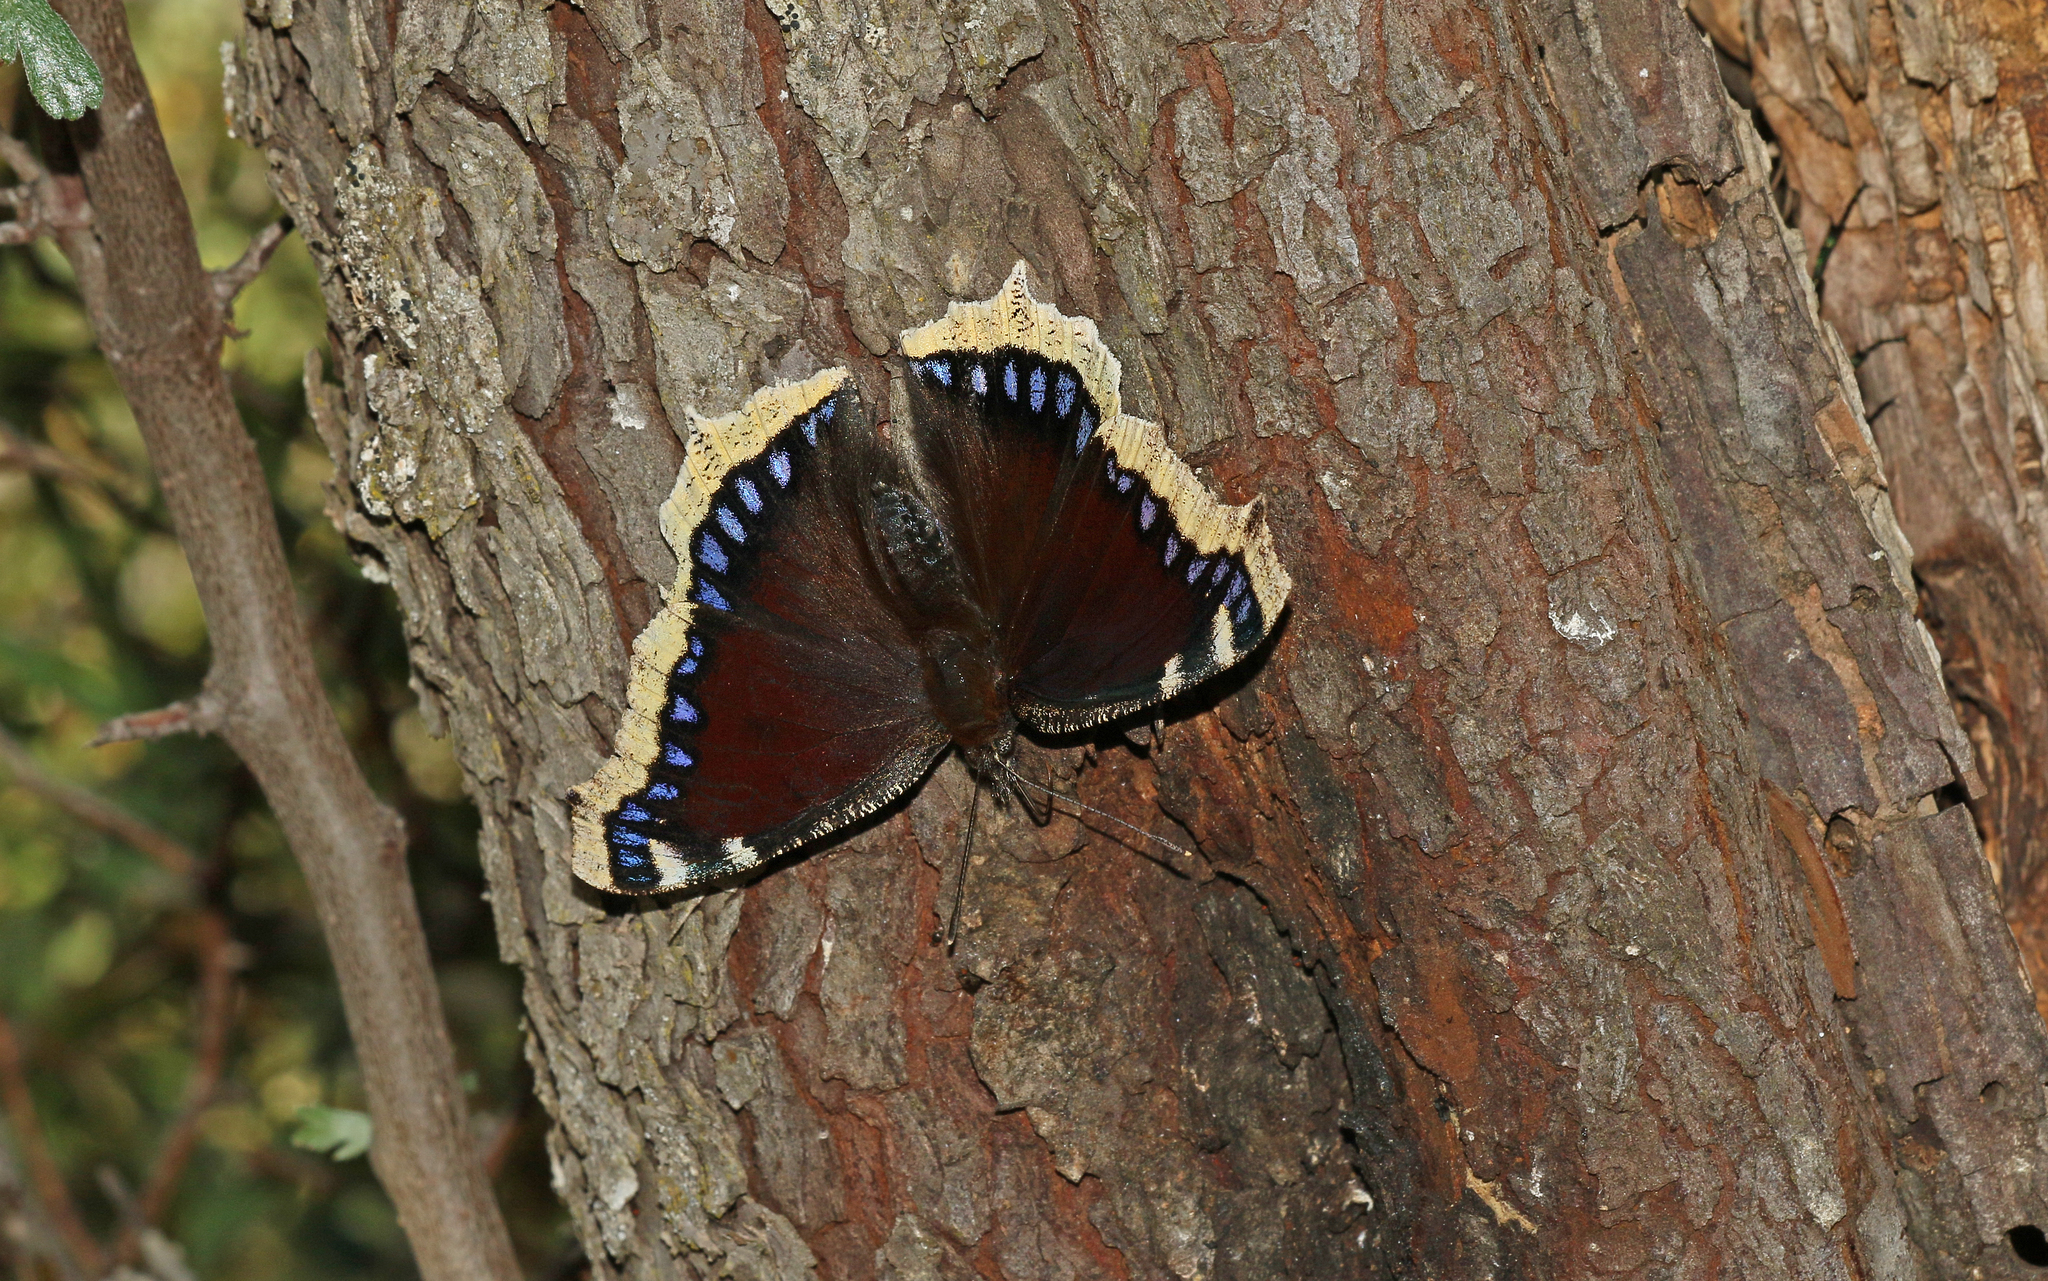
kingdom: Animalia
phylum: Arthropoda
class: Insecta
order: Lepidoptera
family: Nymphalidae
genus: Nymphalis
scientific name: Nymphalis antiopa
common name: Camberwell beauty
